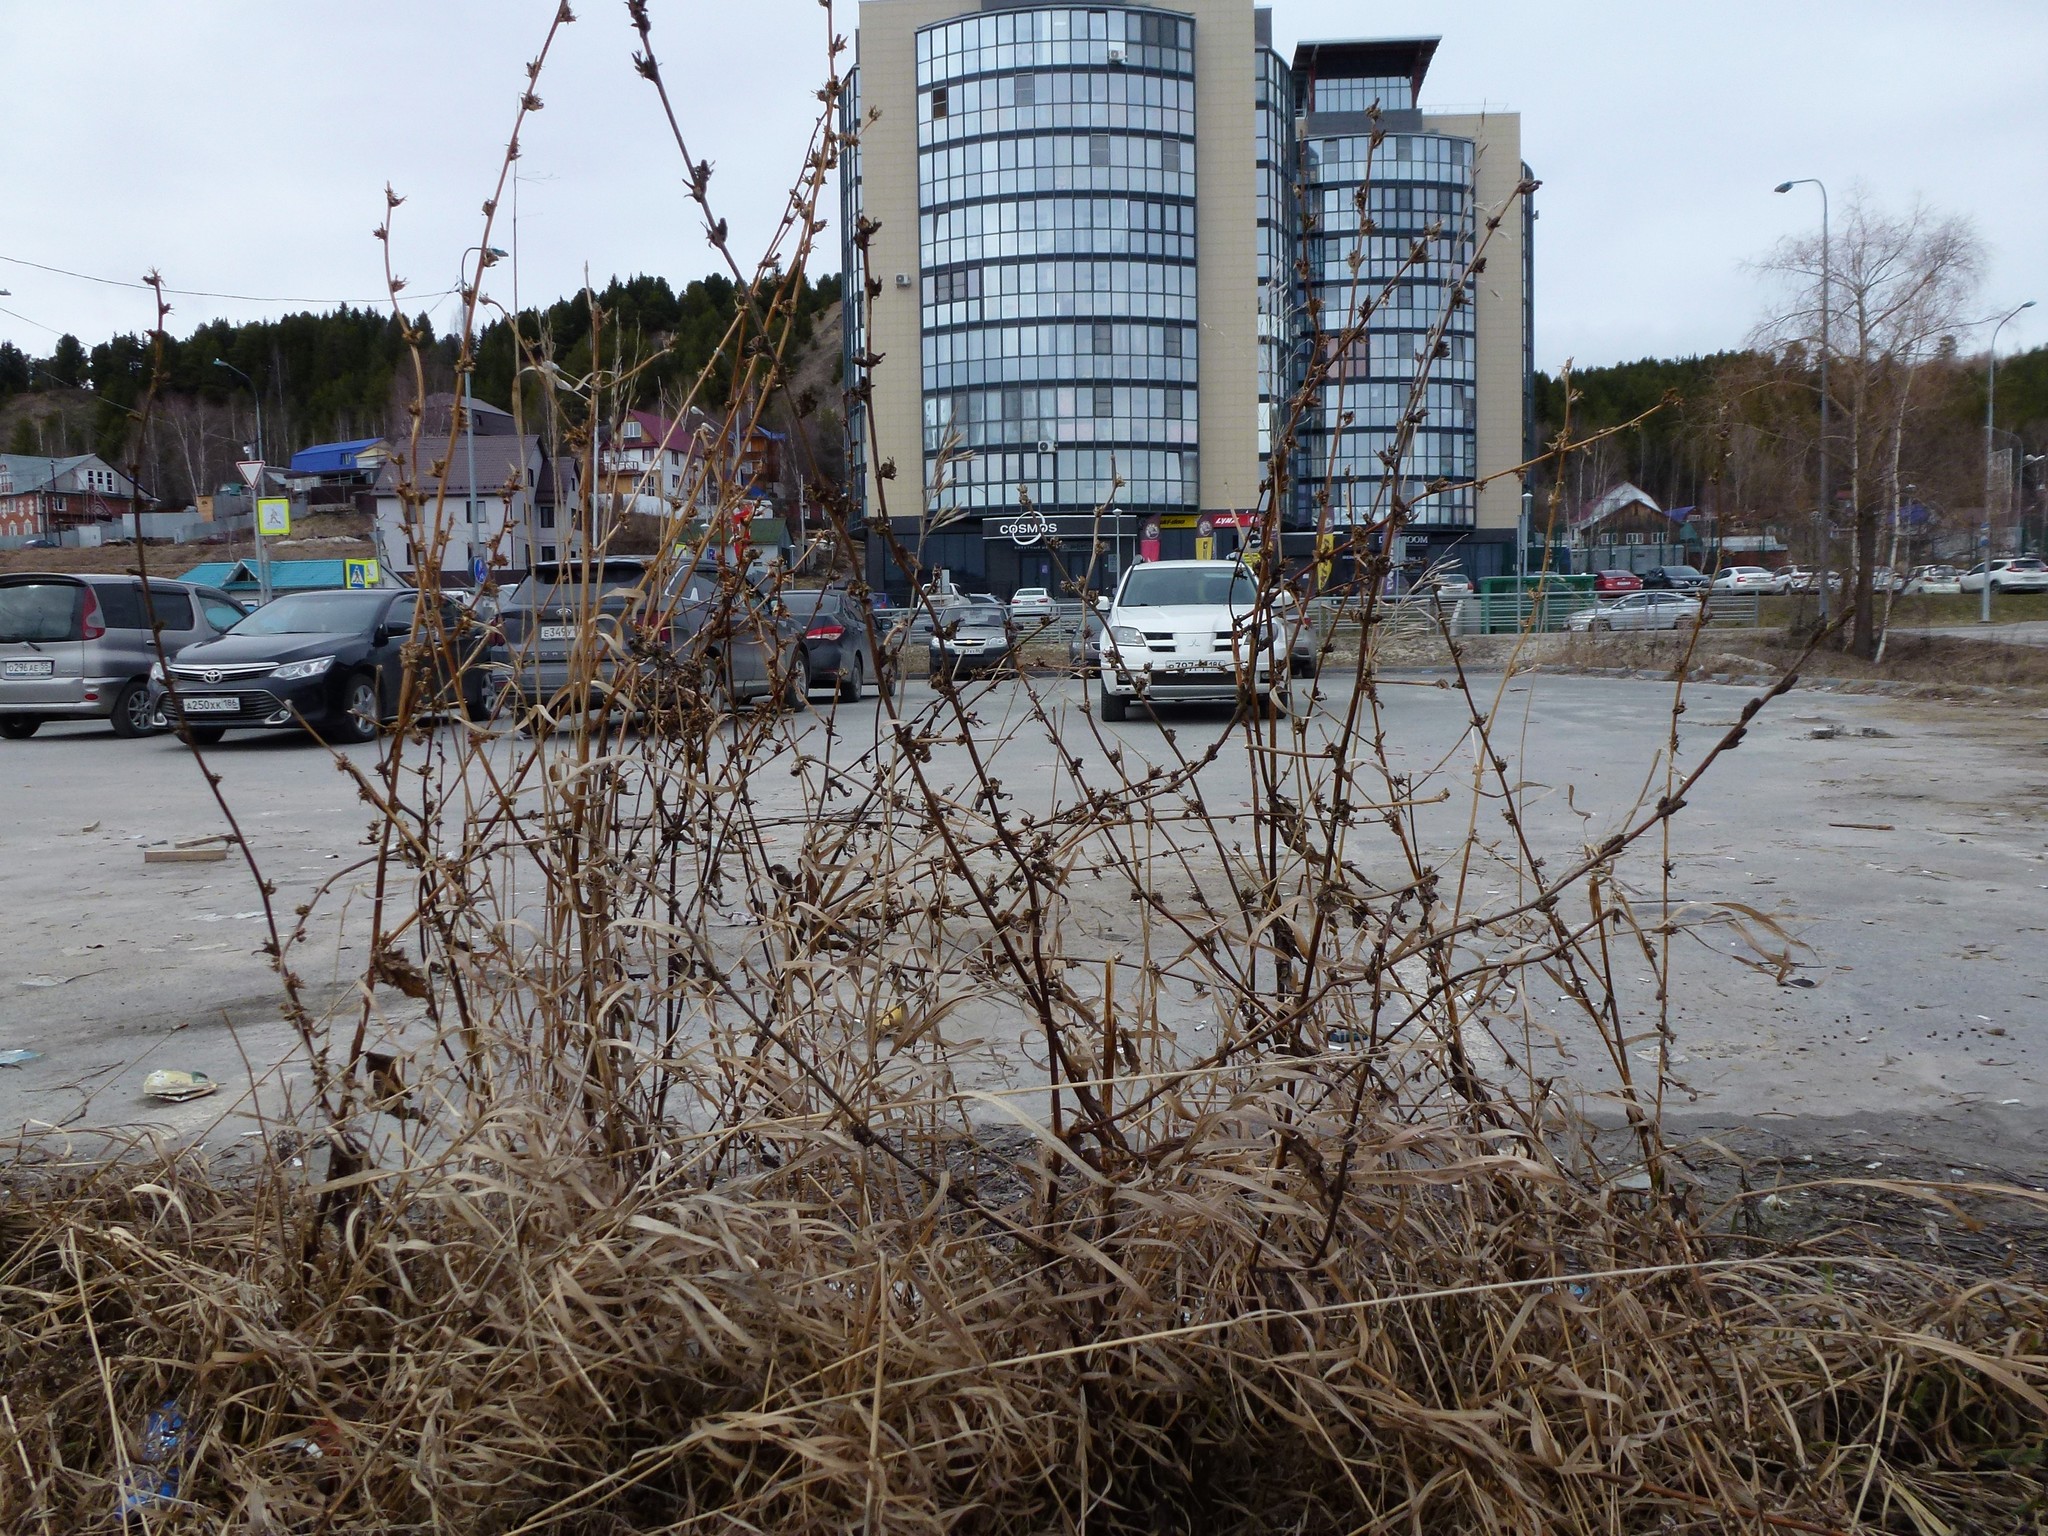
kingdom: Plantae
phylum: Tracheophyta
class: Magnoliopsida
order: Asterales
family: Asteraceae
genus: Cichorium
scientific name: Cichorium intybus
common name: Chicory
